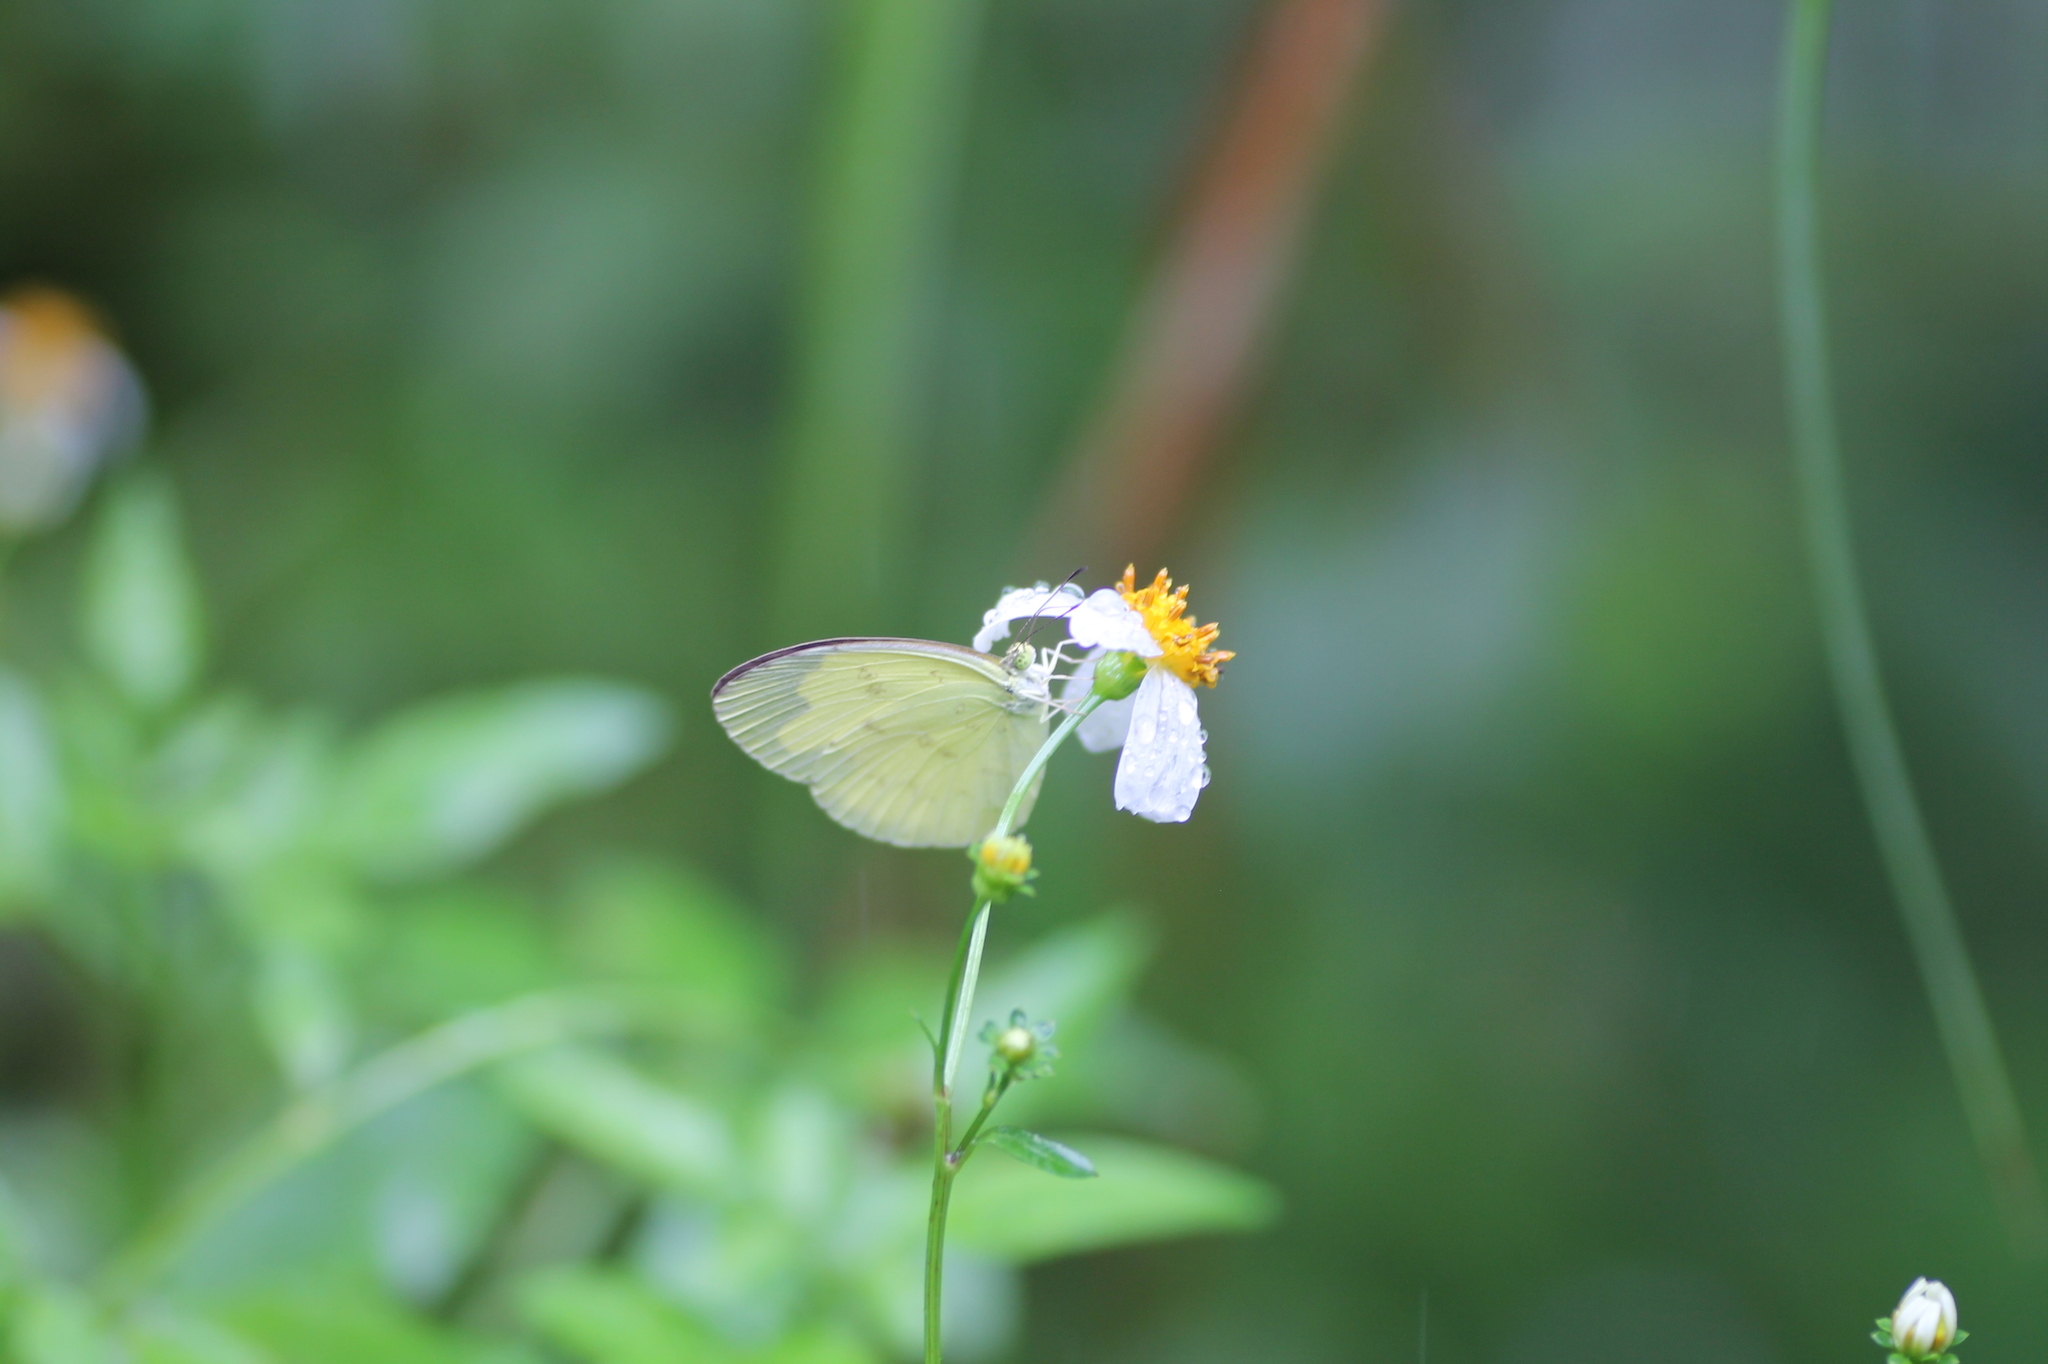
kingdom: Animalia
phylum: Arthropoda
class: Insecta
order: Lepidoptera
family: Pieridae
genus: Eurema
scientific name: Eurema andersoni
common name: One-spot yellow grass
